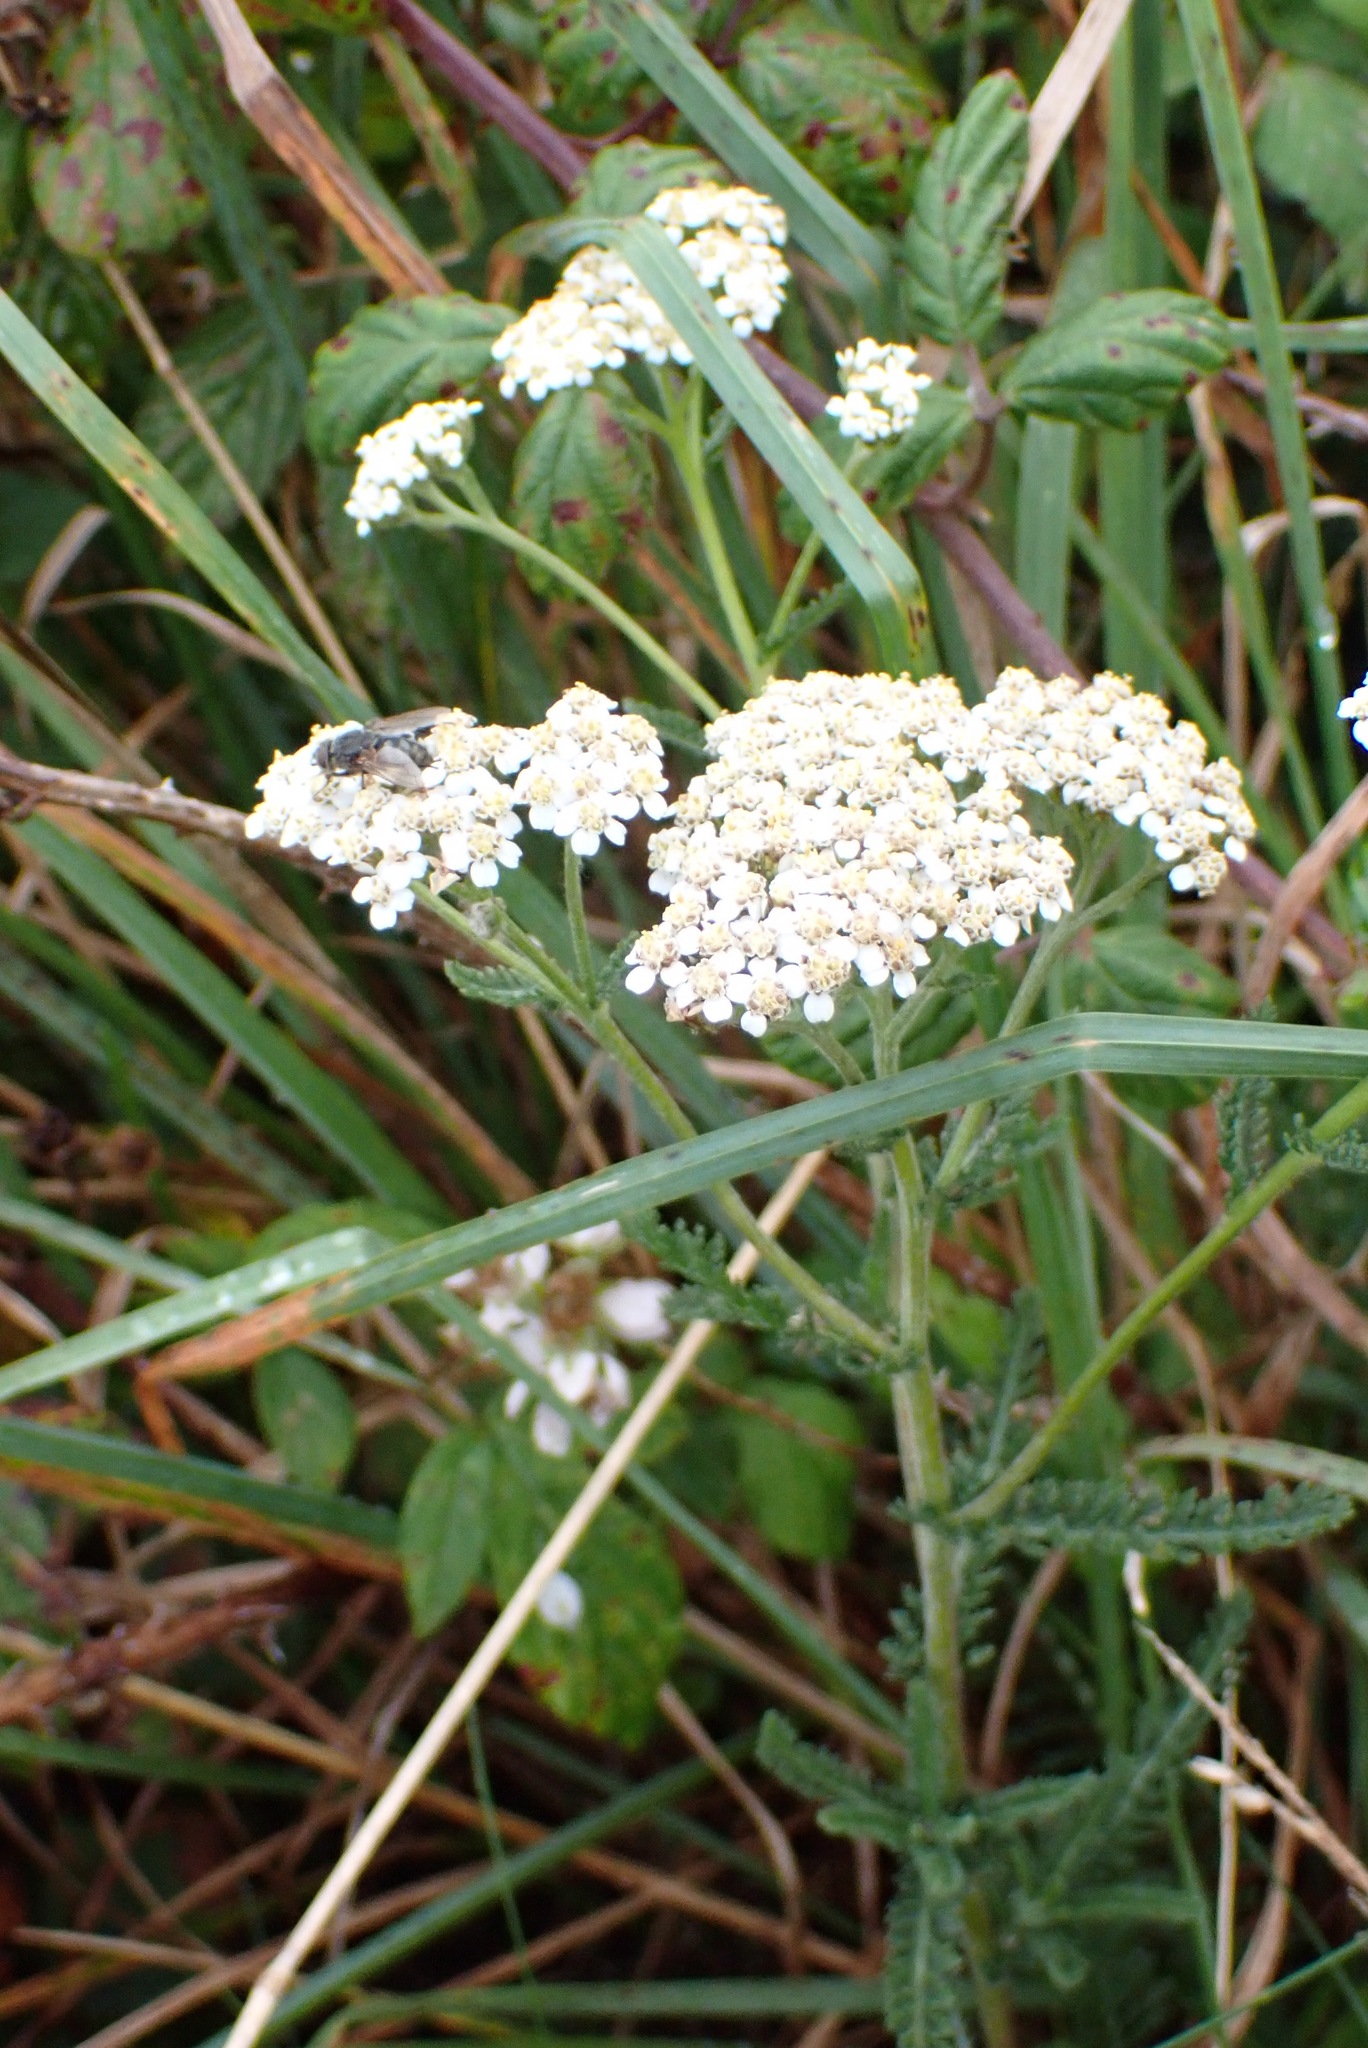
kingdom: Plantae
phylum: Tracheophyta
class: Magnoliopsida
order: Asterales
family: Asteraceae
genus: Achillea
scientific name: Achillea millefolium
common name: Yarrow
